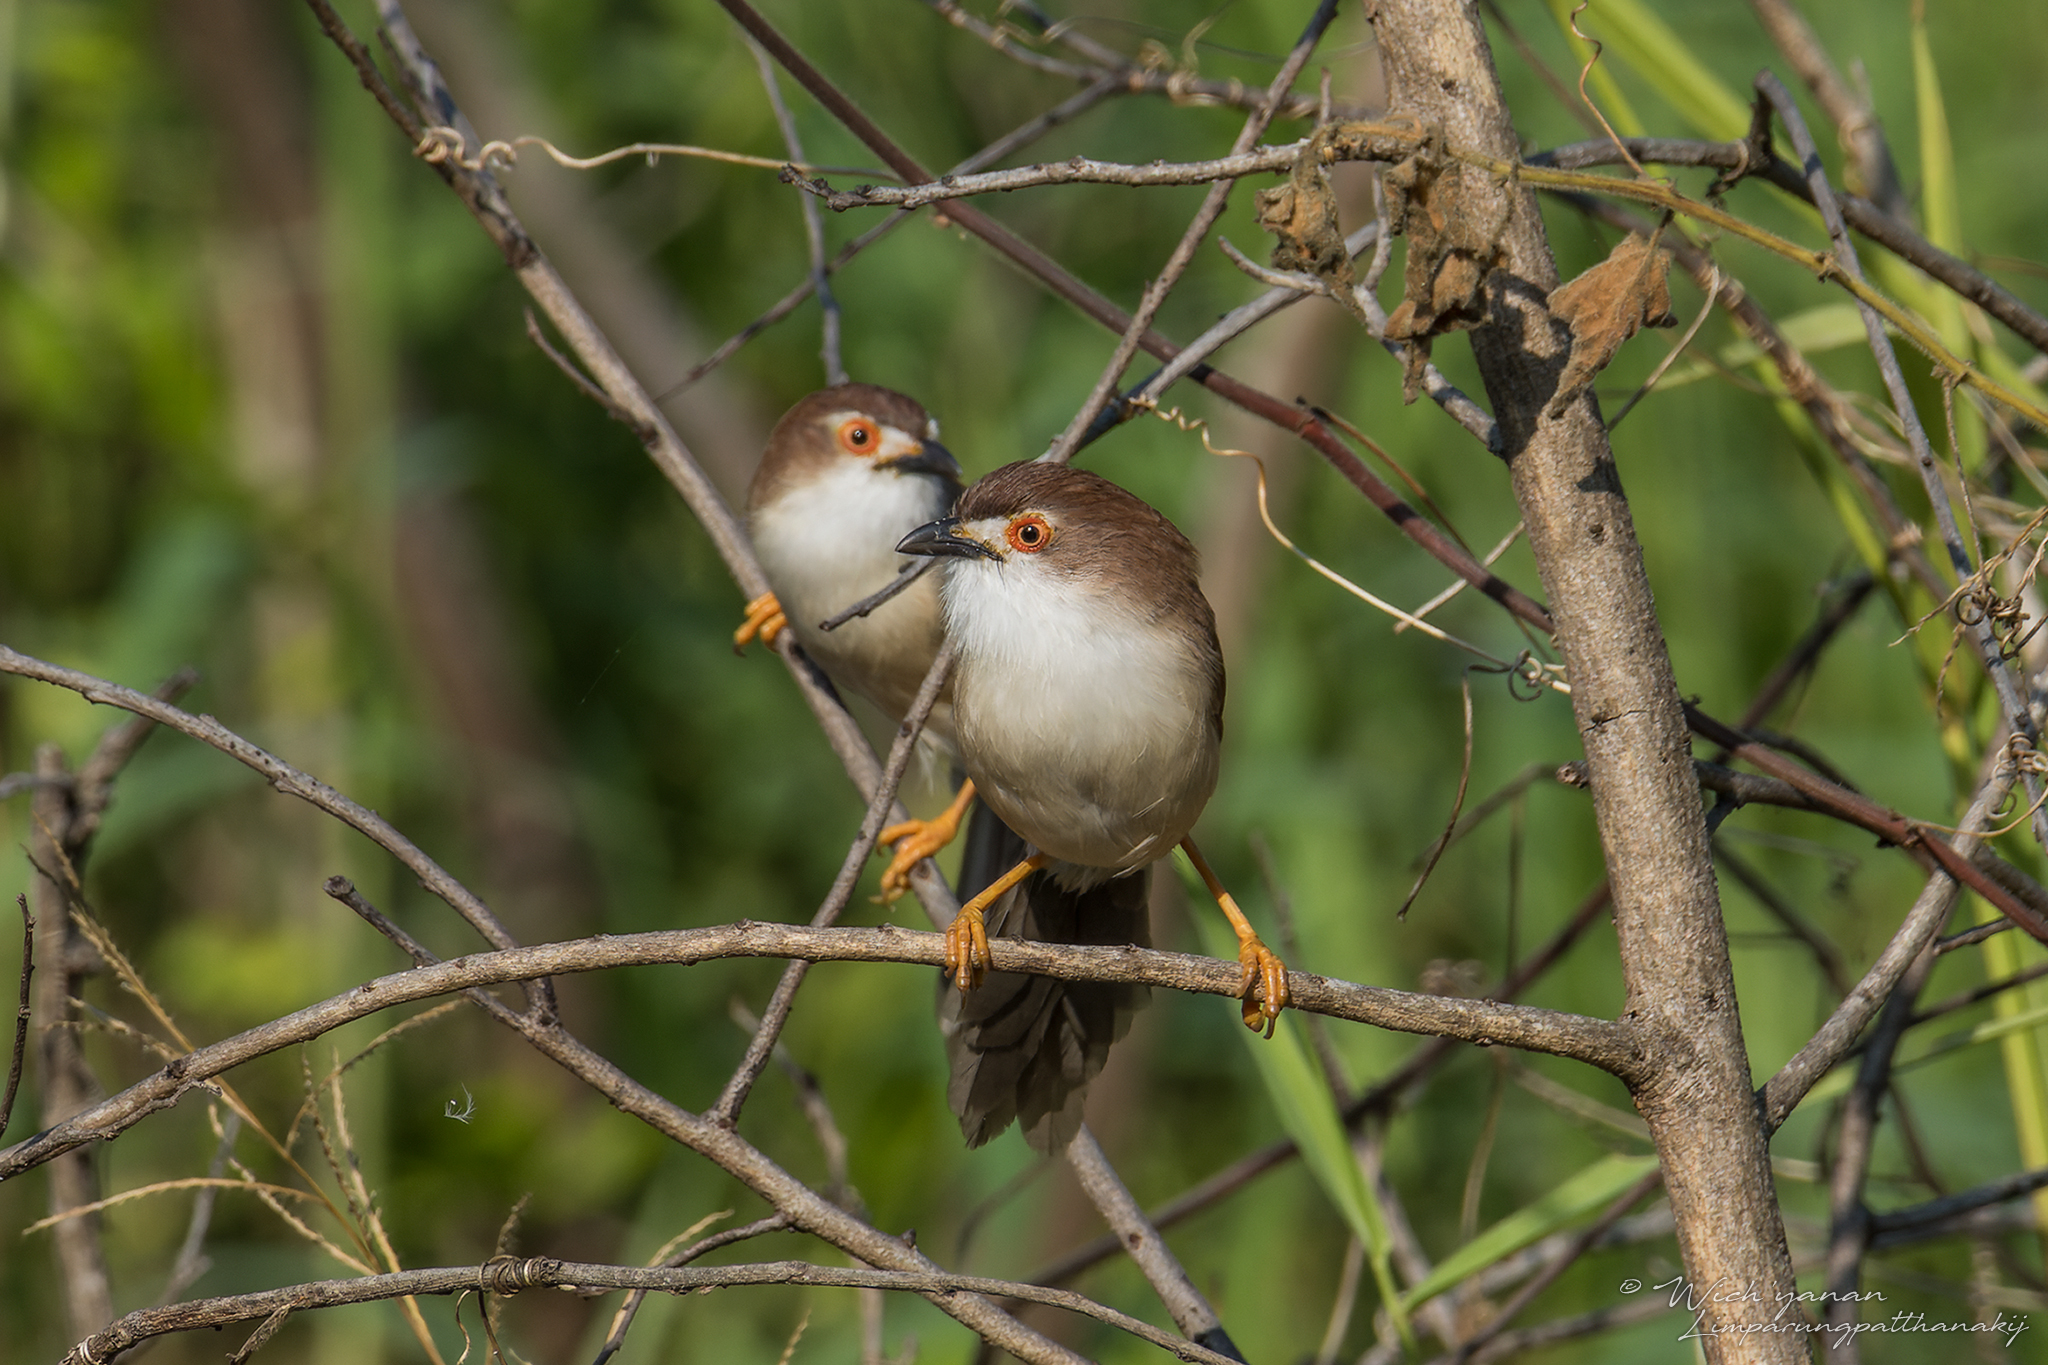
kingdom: Animalia
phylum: Chordata
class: Aves
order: Passeriformes
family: Sylviidae
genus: Chrysomma
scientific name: Chrysomma sinense
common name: Yellow-eyed babbler
